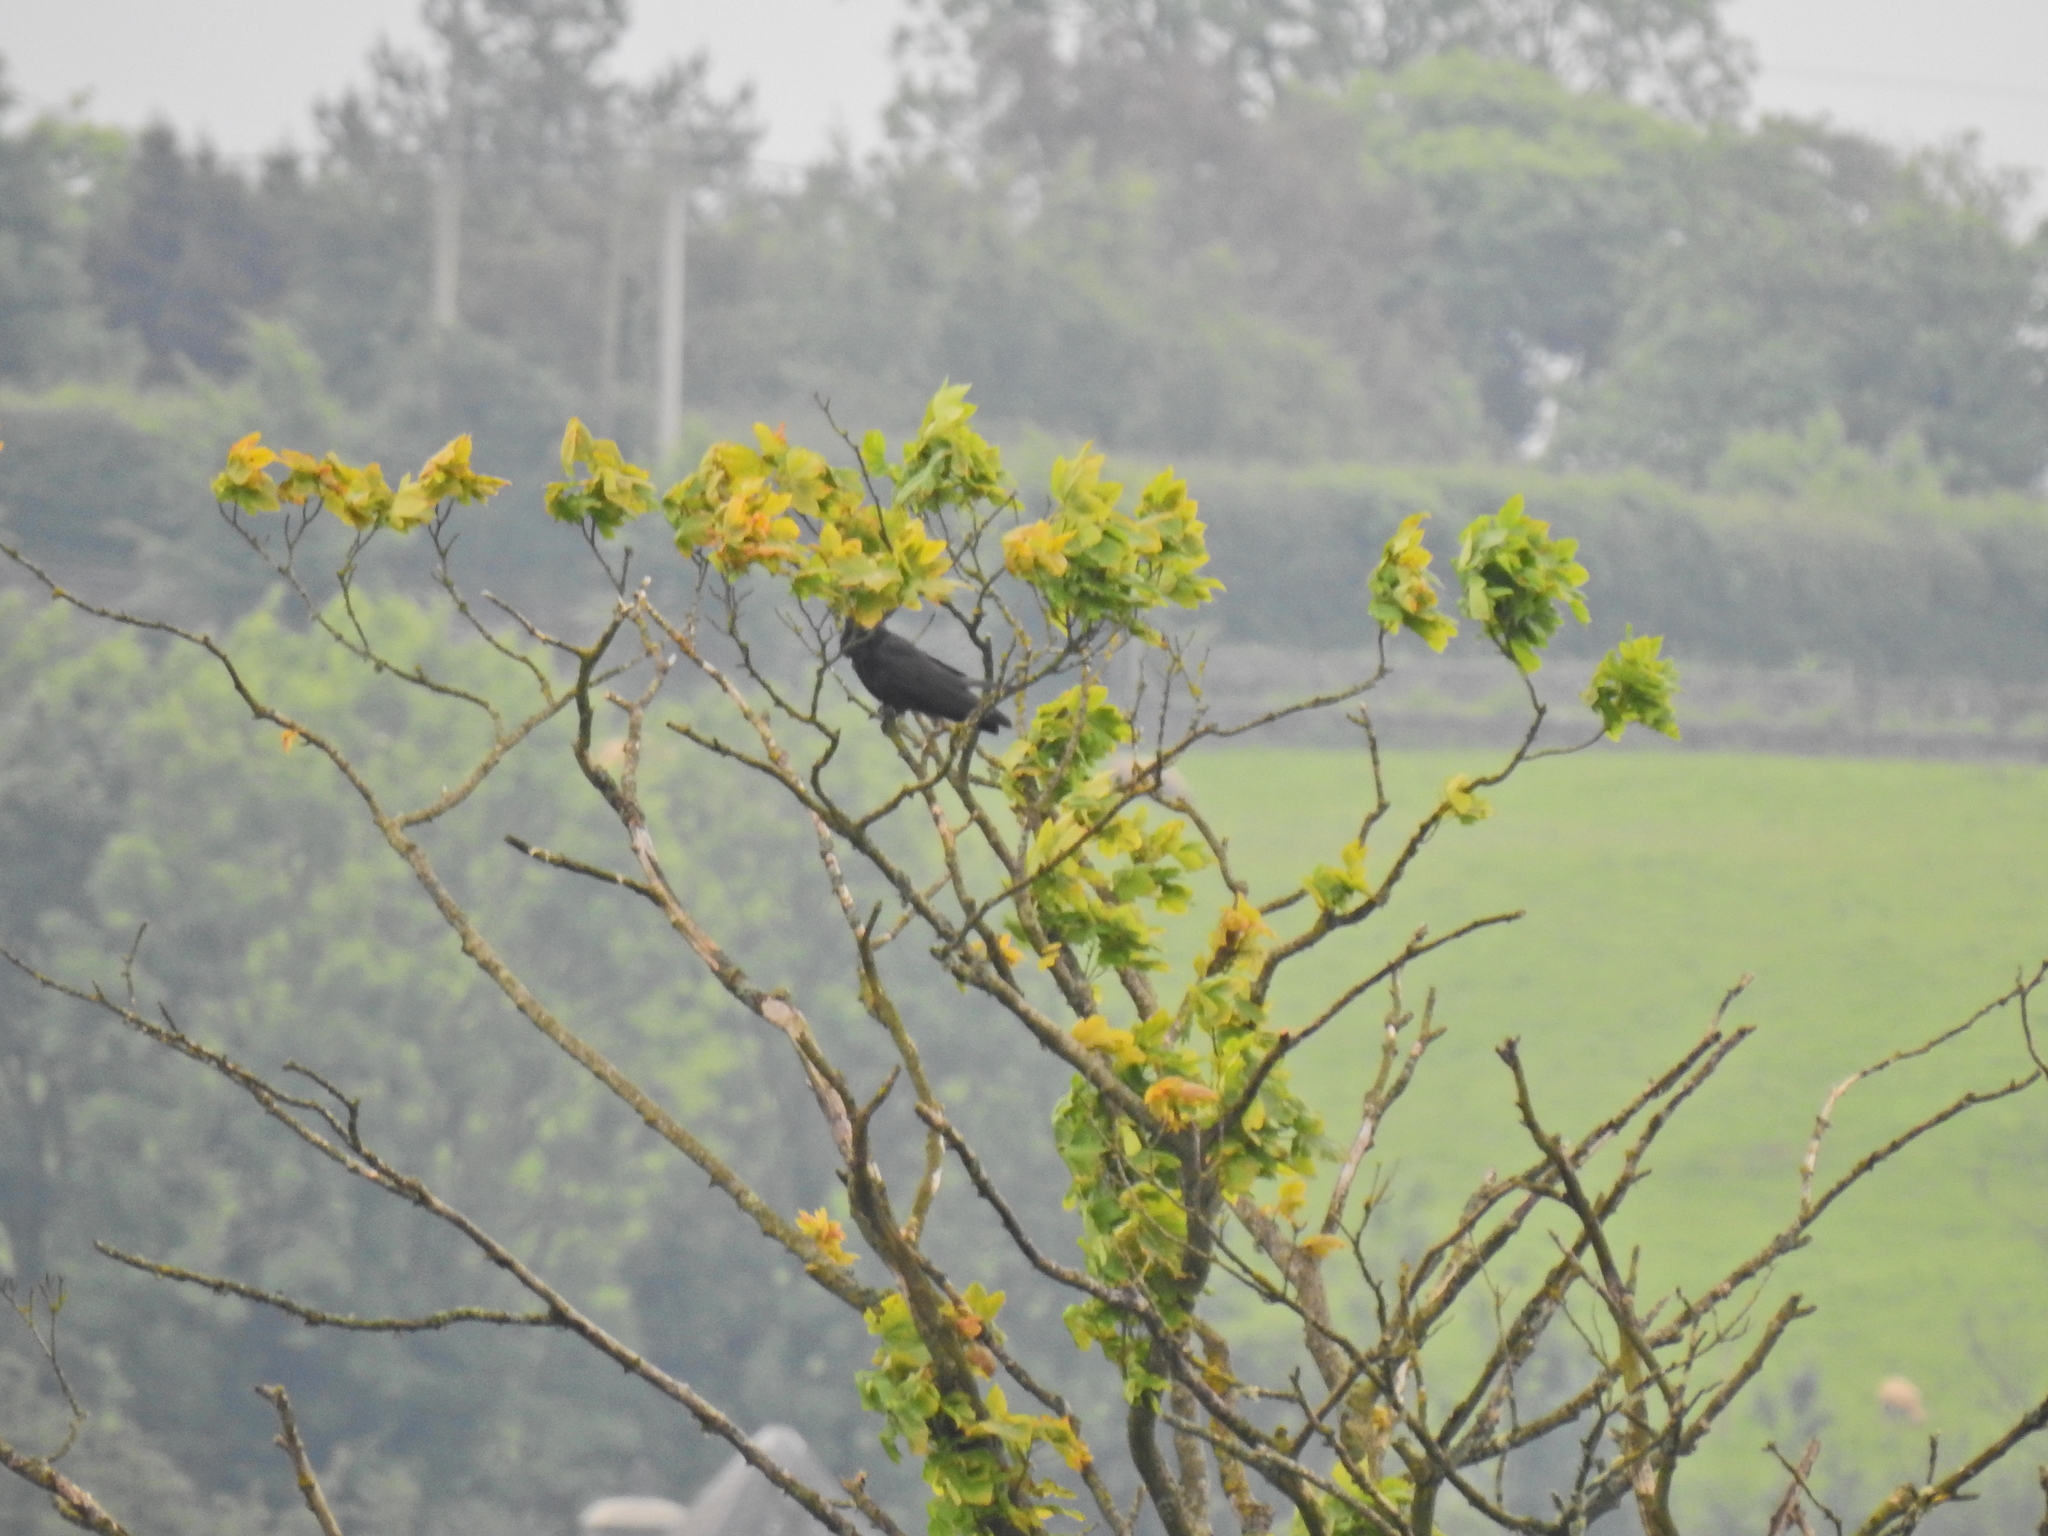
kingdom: Animalia
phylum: Chordata
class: Aves
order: Passeriformes
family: Corvidae
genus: Corvus
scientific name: Corvus corone
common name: Carrion crow
